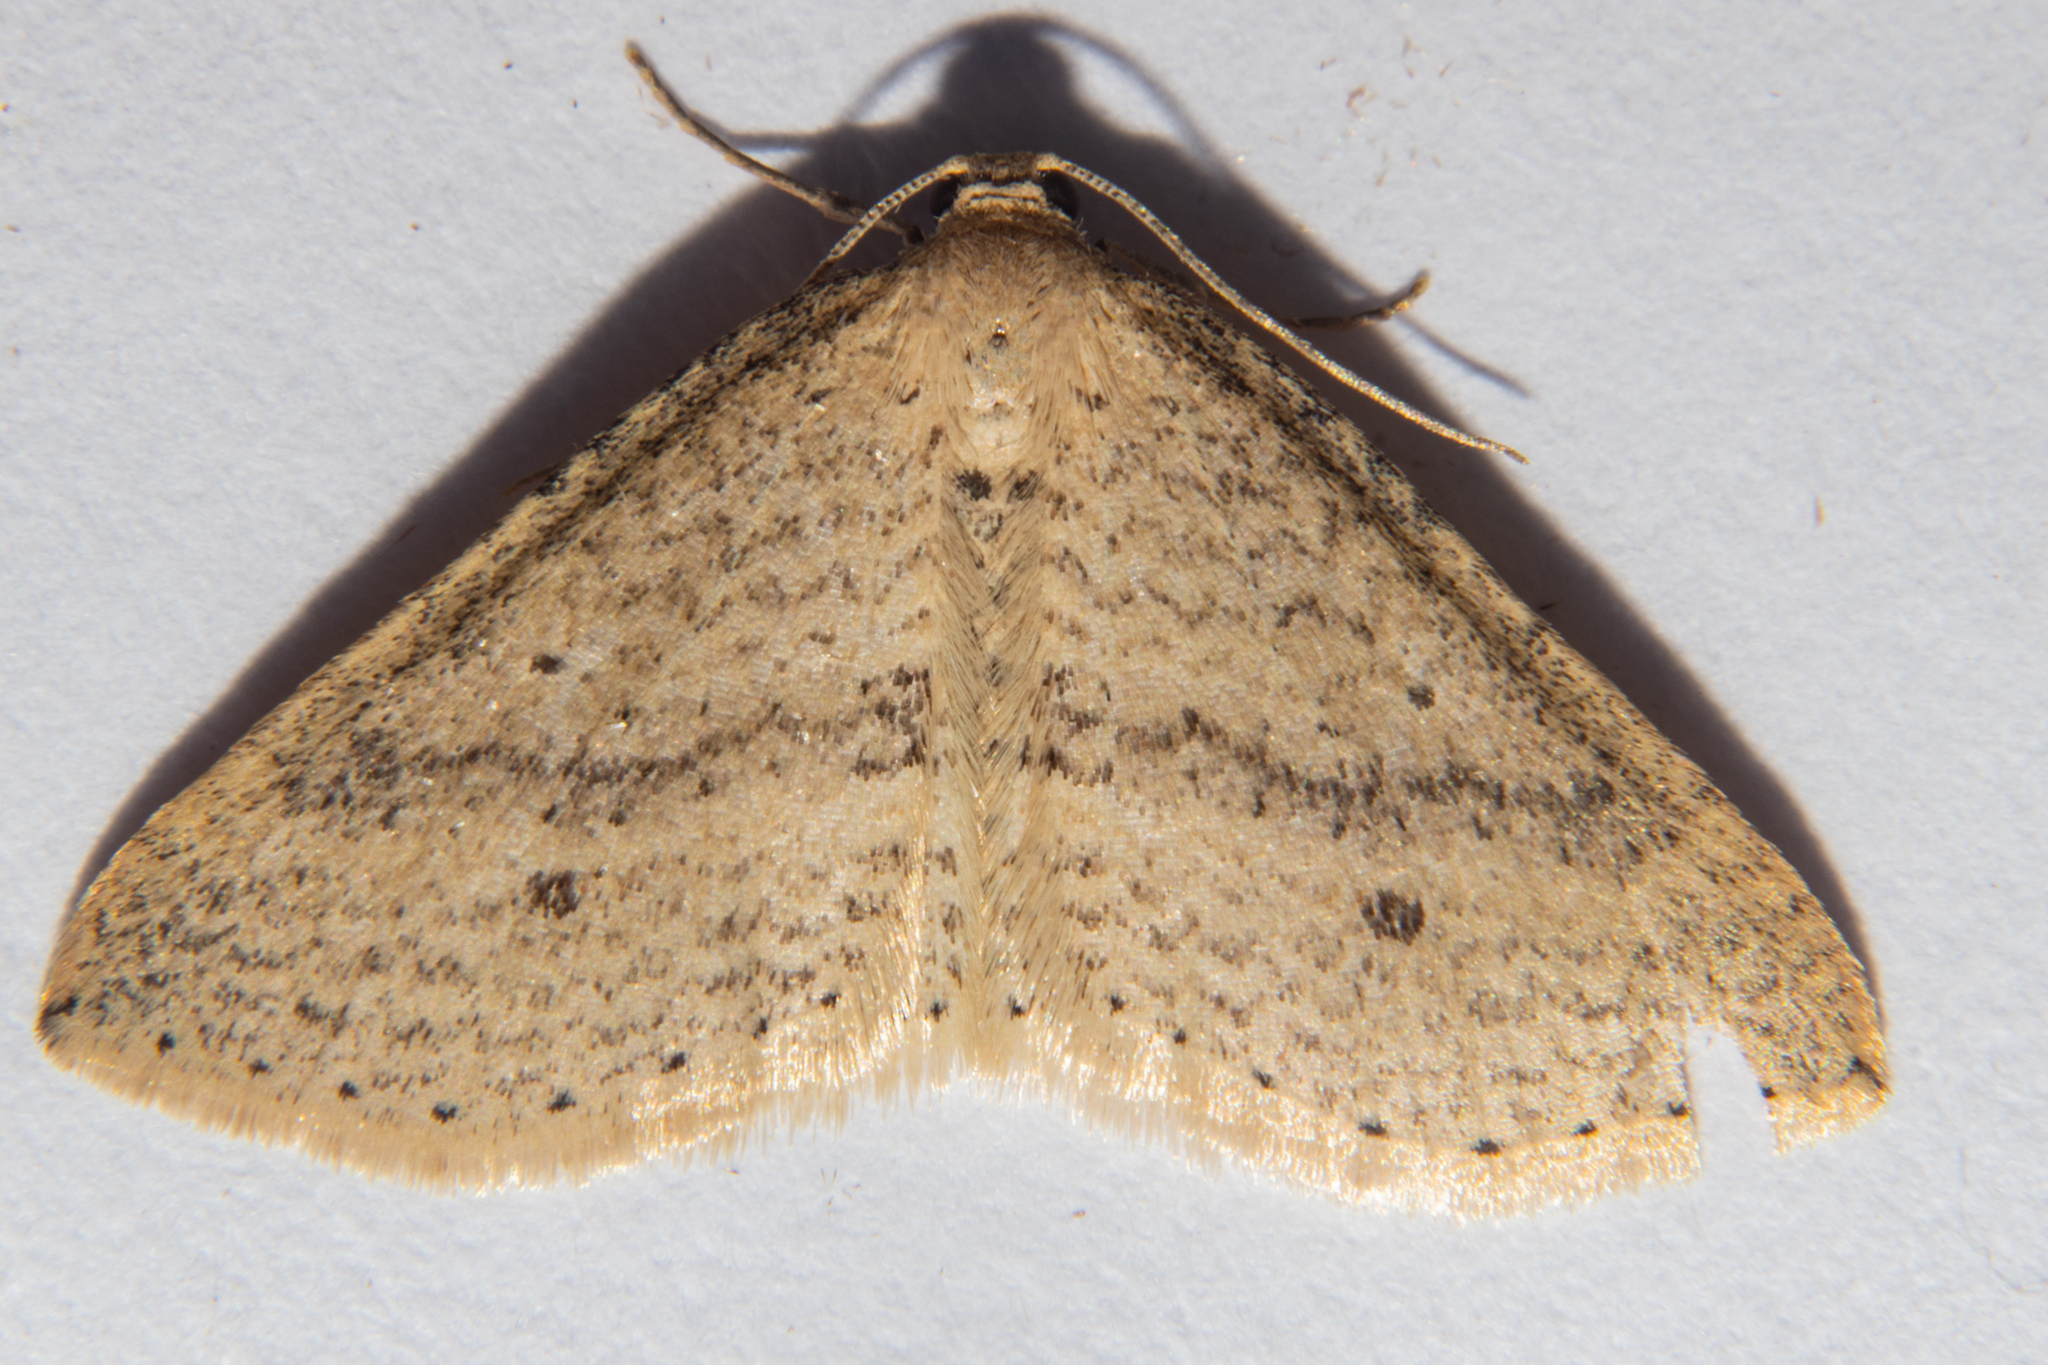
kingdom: Animalia
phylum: Arthropoda
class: Insecta
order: Lepidoptera
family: Geometridae
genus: Epicyme
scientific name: Epicyme rubropunctaria
